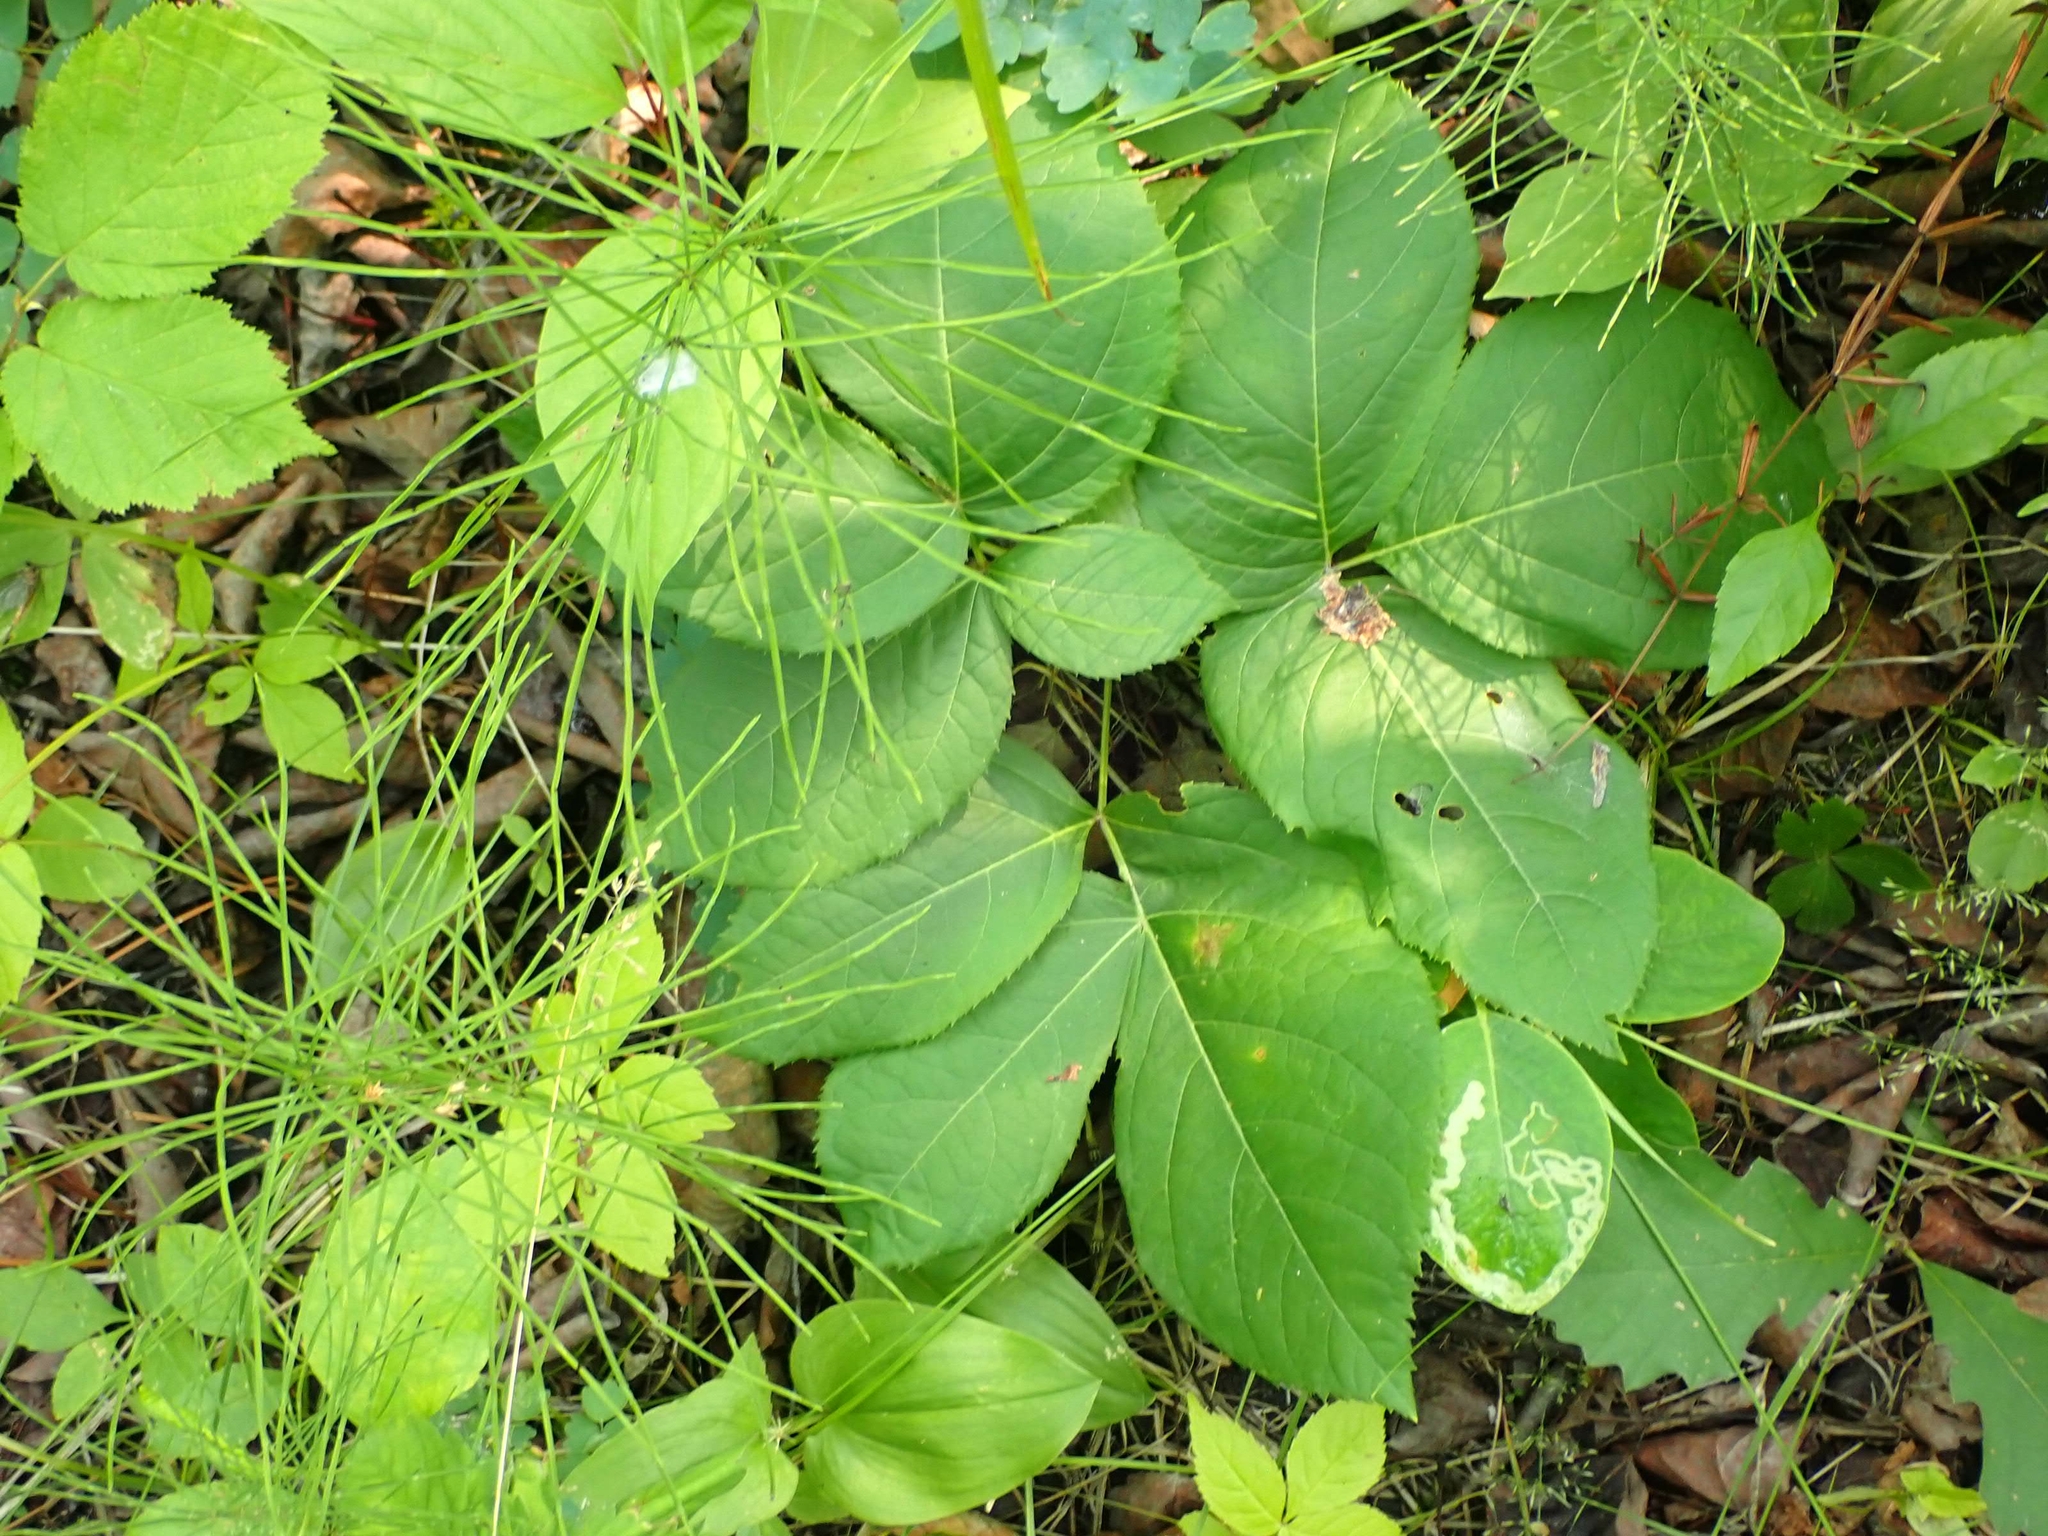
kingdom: Plantae
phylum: Tracheophyta
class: Magnoliopsida
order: Apiales
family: Araliaceae
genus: Aralia
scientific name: Aralia nudicaulis
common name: Wild sarsaparilla
